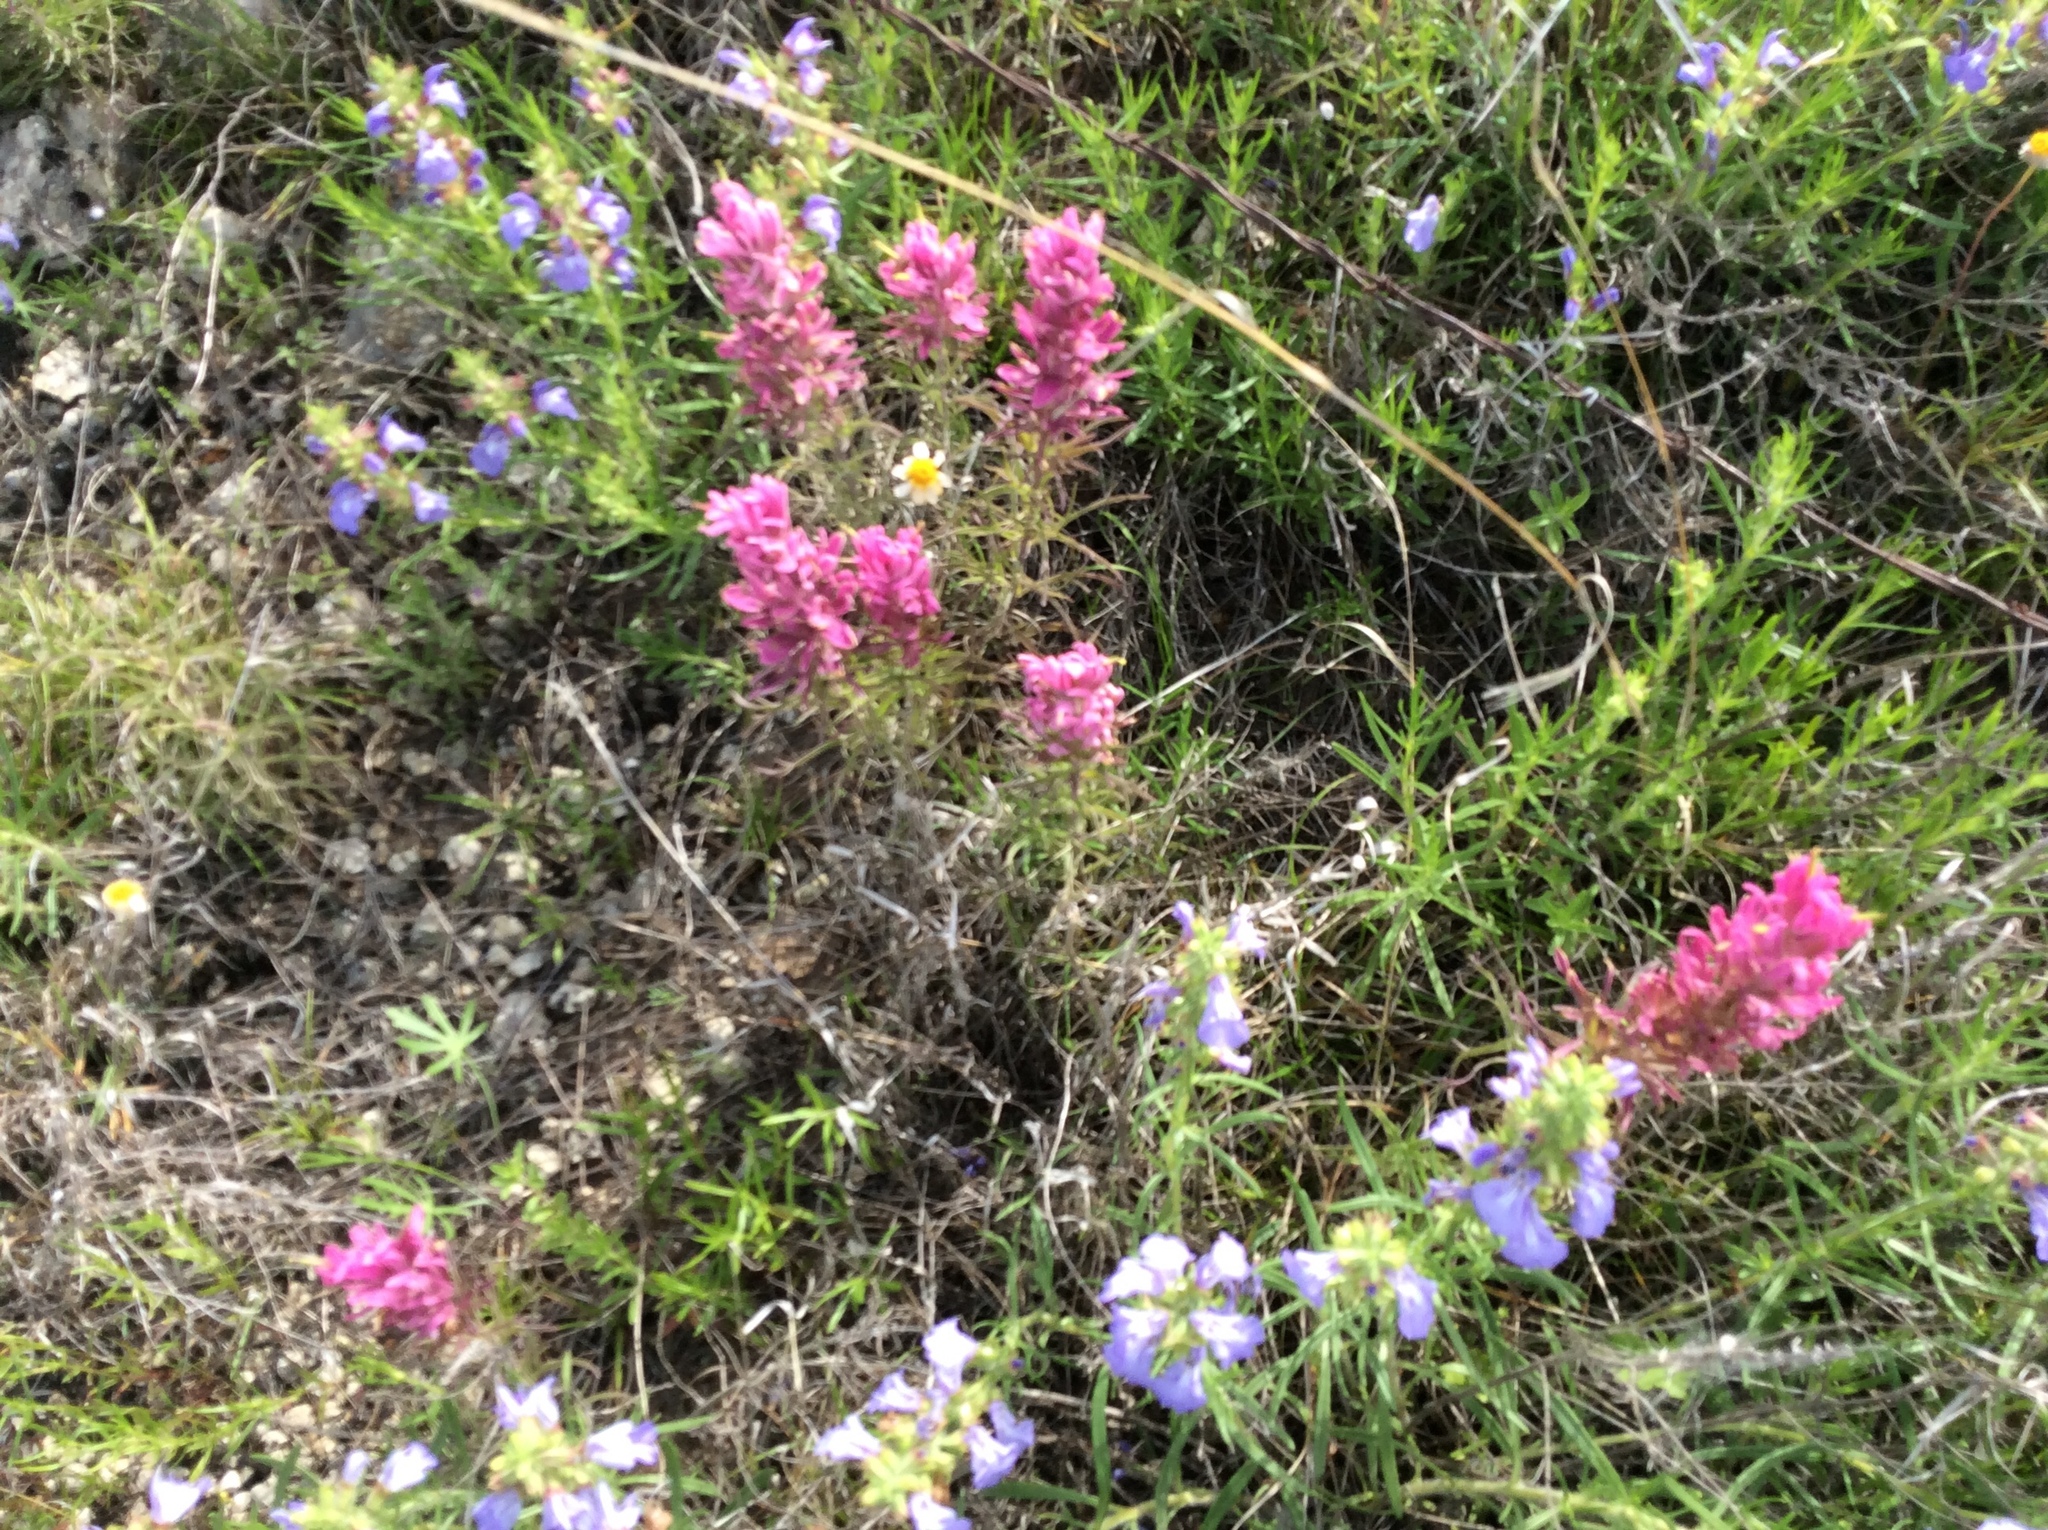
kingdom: Plantae
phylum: Tracheophyta
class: Magnoliopsida
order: Lamiales
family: Orobanchaceae
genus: Castilleja
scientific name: Castilleja purpurea
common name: Plains paintbrush
